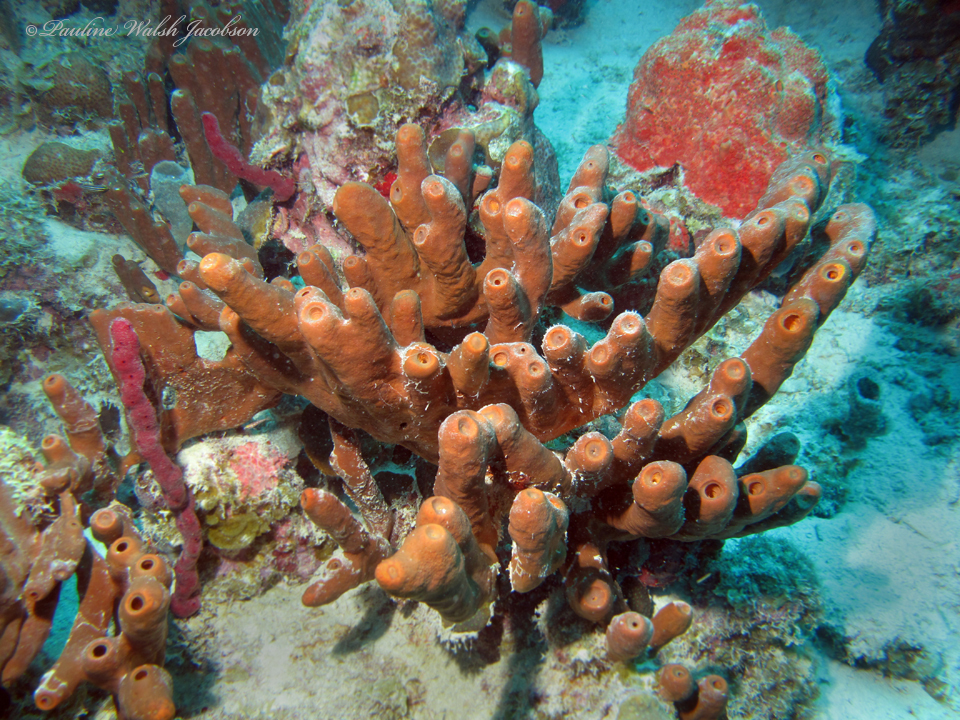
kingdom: Animalia
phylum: Porifera
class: Demospongiae
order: Agelasida
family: Agelasidae
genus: Agelas
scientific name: Agelas conifera
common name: Brown tube sponge
